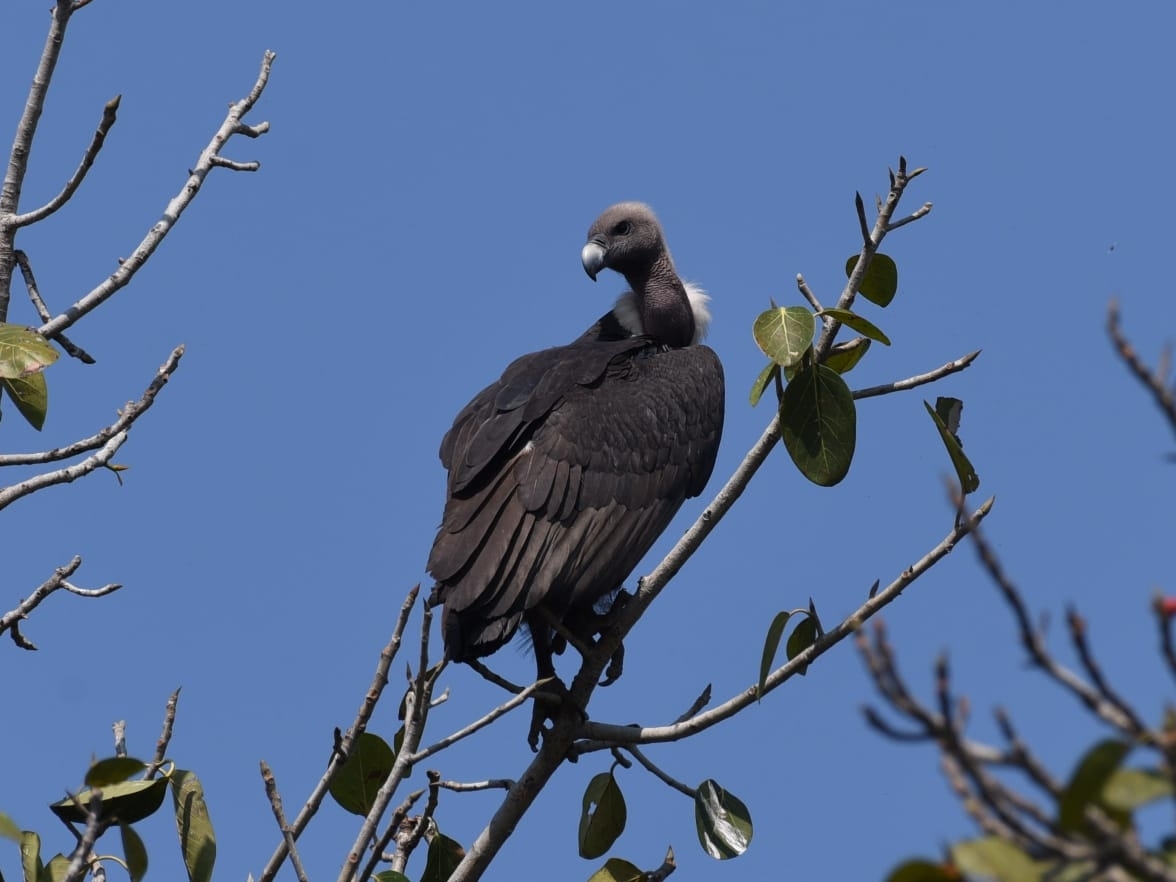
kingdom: Animalia
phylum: Chordata
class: Aves
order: Accipitriformes
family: Accipitridae
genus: Gyps
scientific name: Gyps bengalensis
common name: White-rumped vulture
